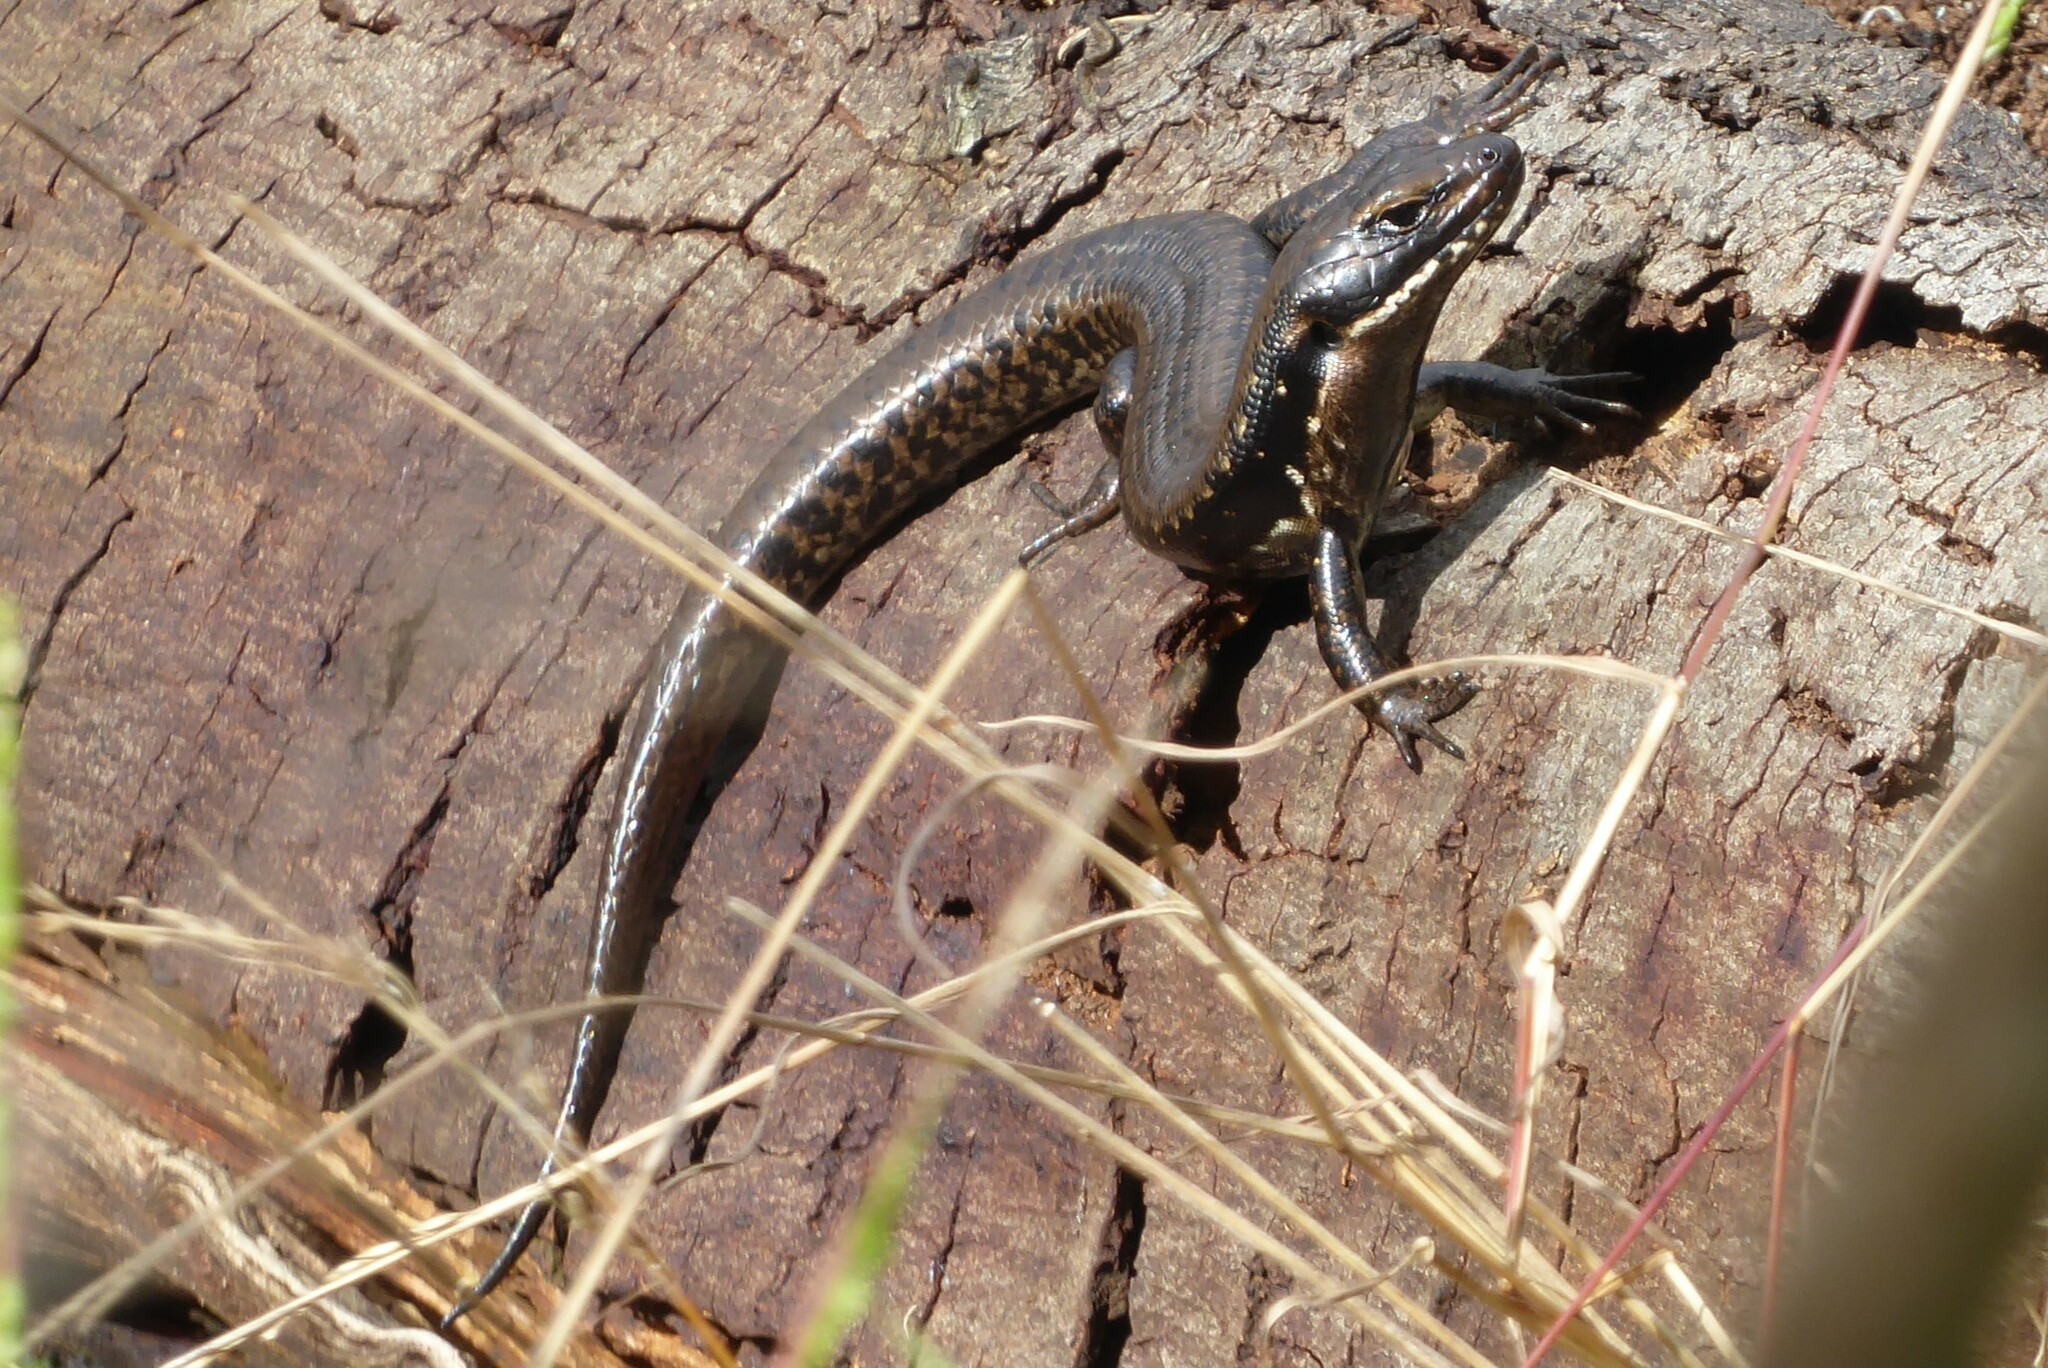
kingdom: Animalia
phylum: Chordata
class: Squamata
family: Scincidae
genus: Eulamprus
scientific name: Eulamprus tympanum
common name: Cool-temperate water-skink
